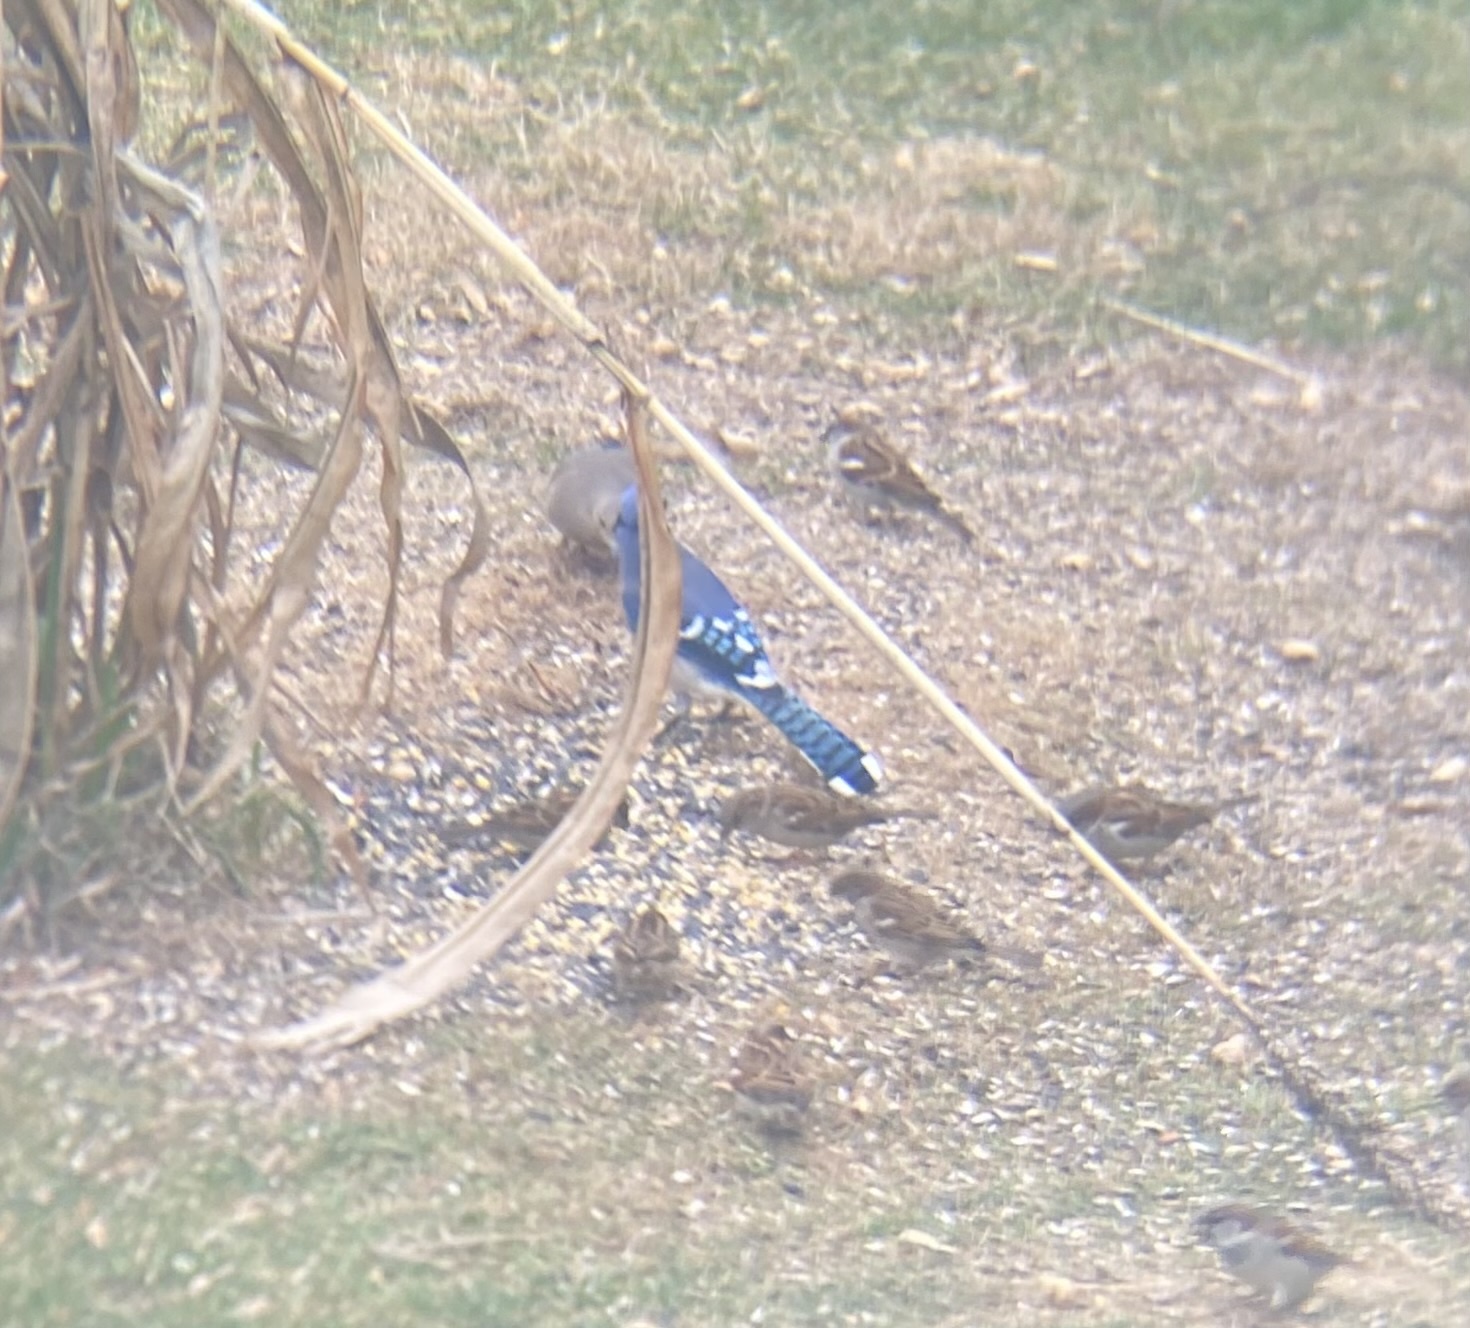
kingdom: Animalia
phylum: Chordata
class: Aves
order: Passeriformes
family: Corvidae
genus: Cyanocitta
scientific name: Cyanocitta cristata
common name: Blue jay
